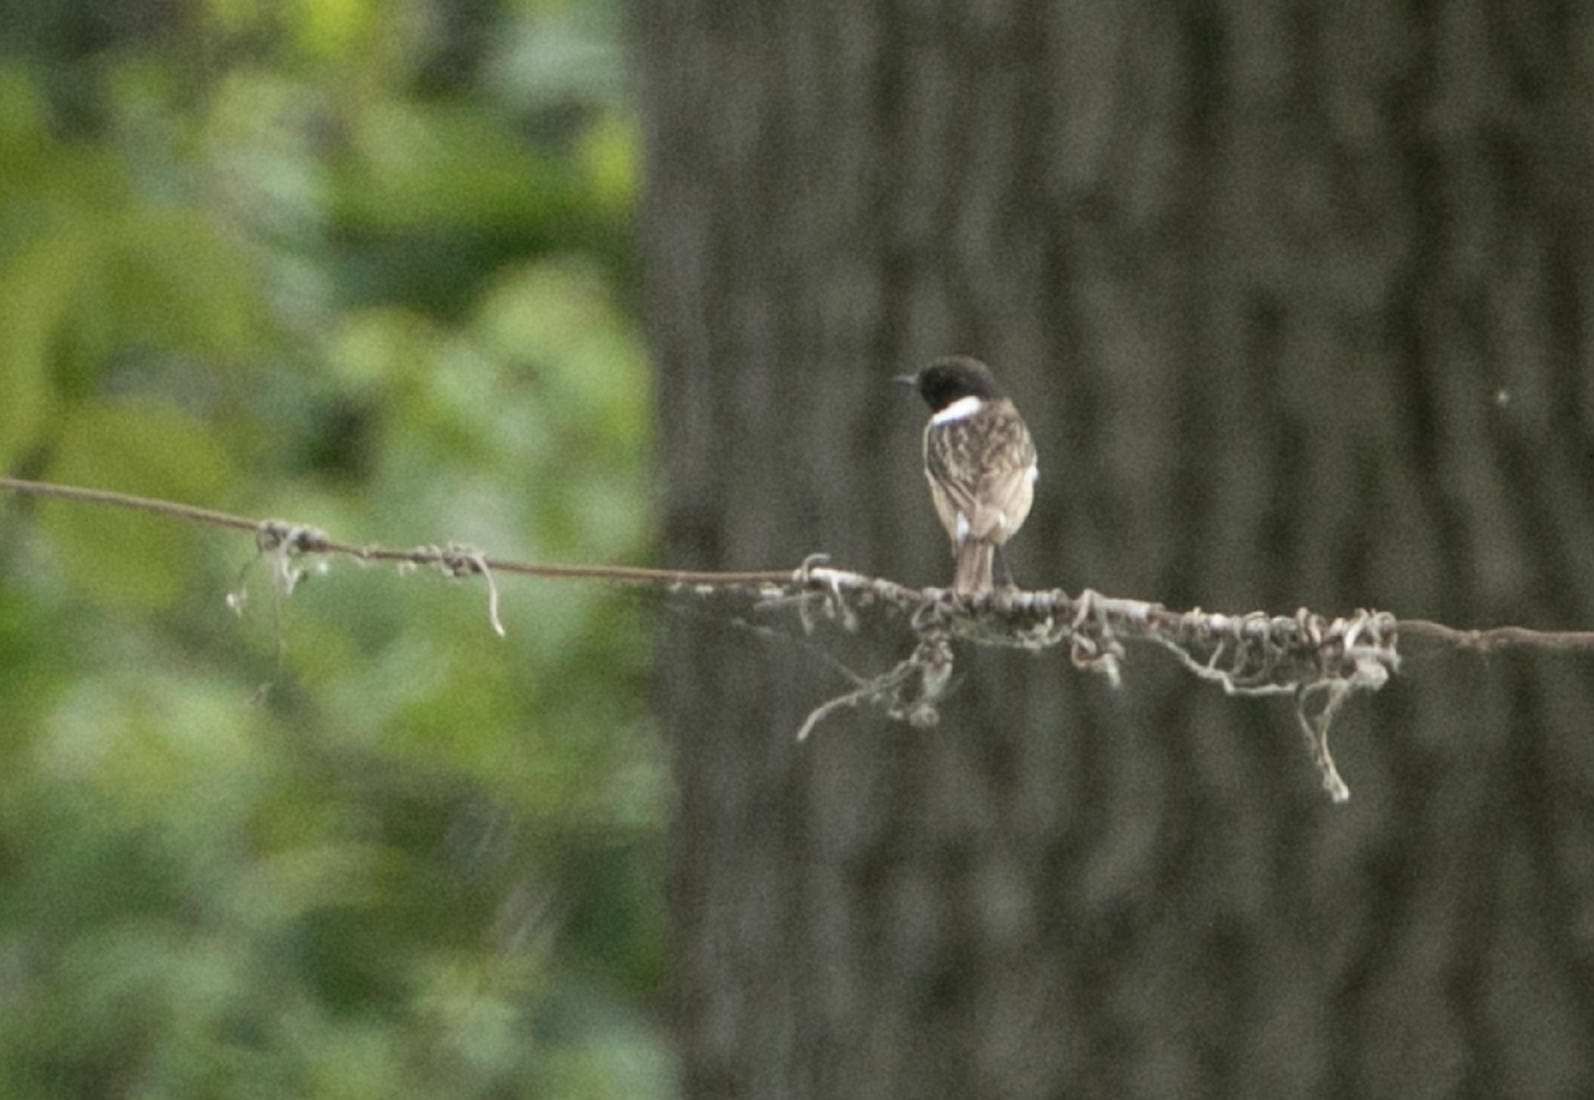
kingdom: Animalia
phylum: Chordata
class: Aves
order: Passeriformes
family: Muscicapidae
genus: Saxicola
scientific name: Saxicola rubicola
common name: European stonechat
